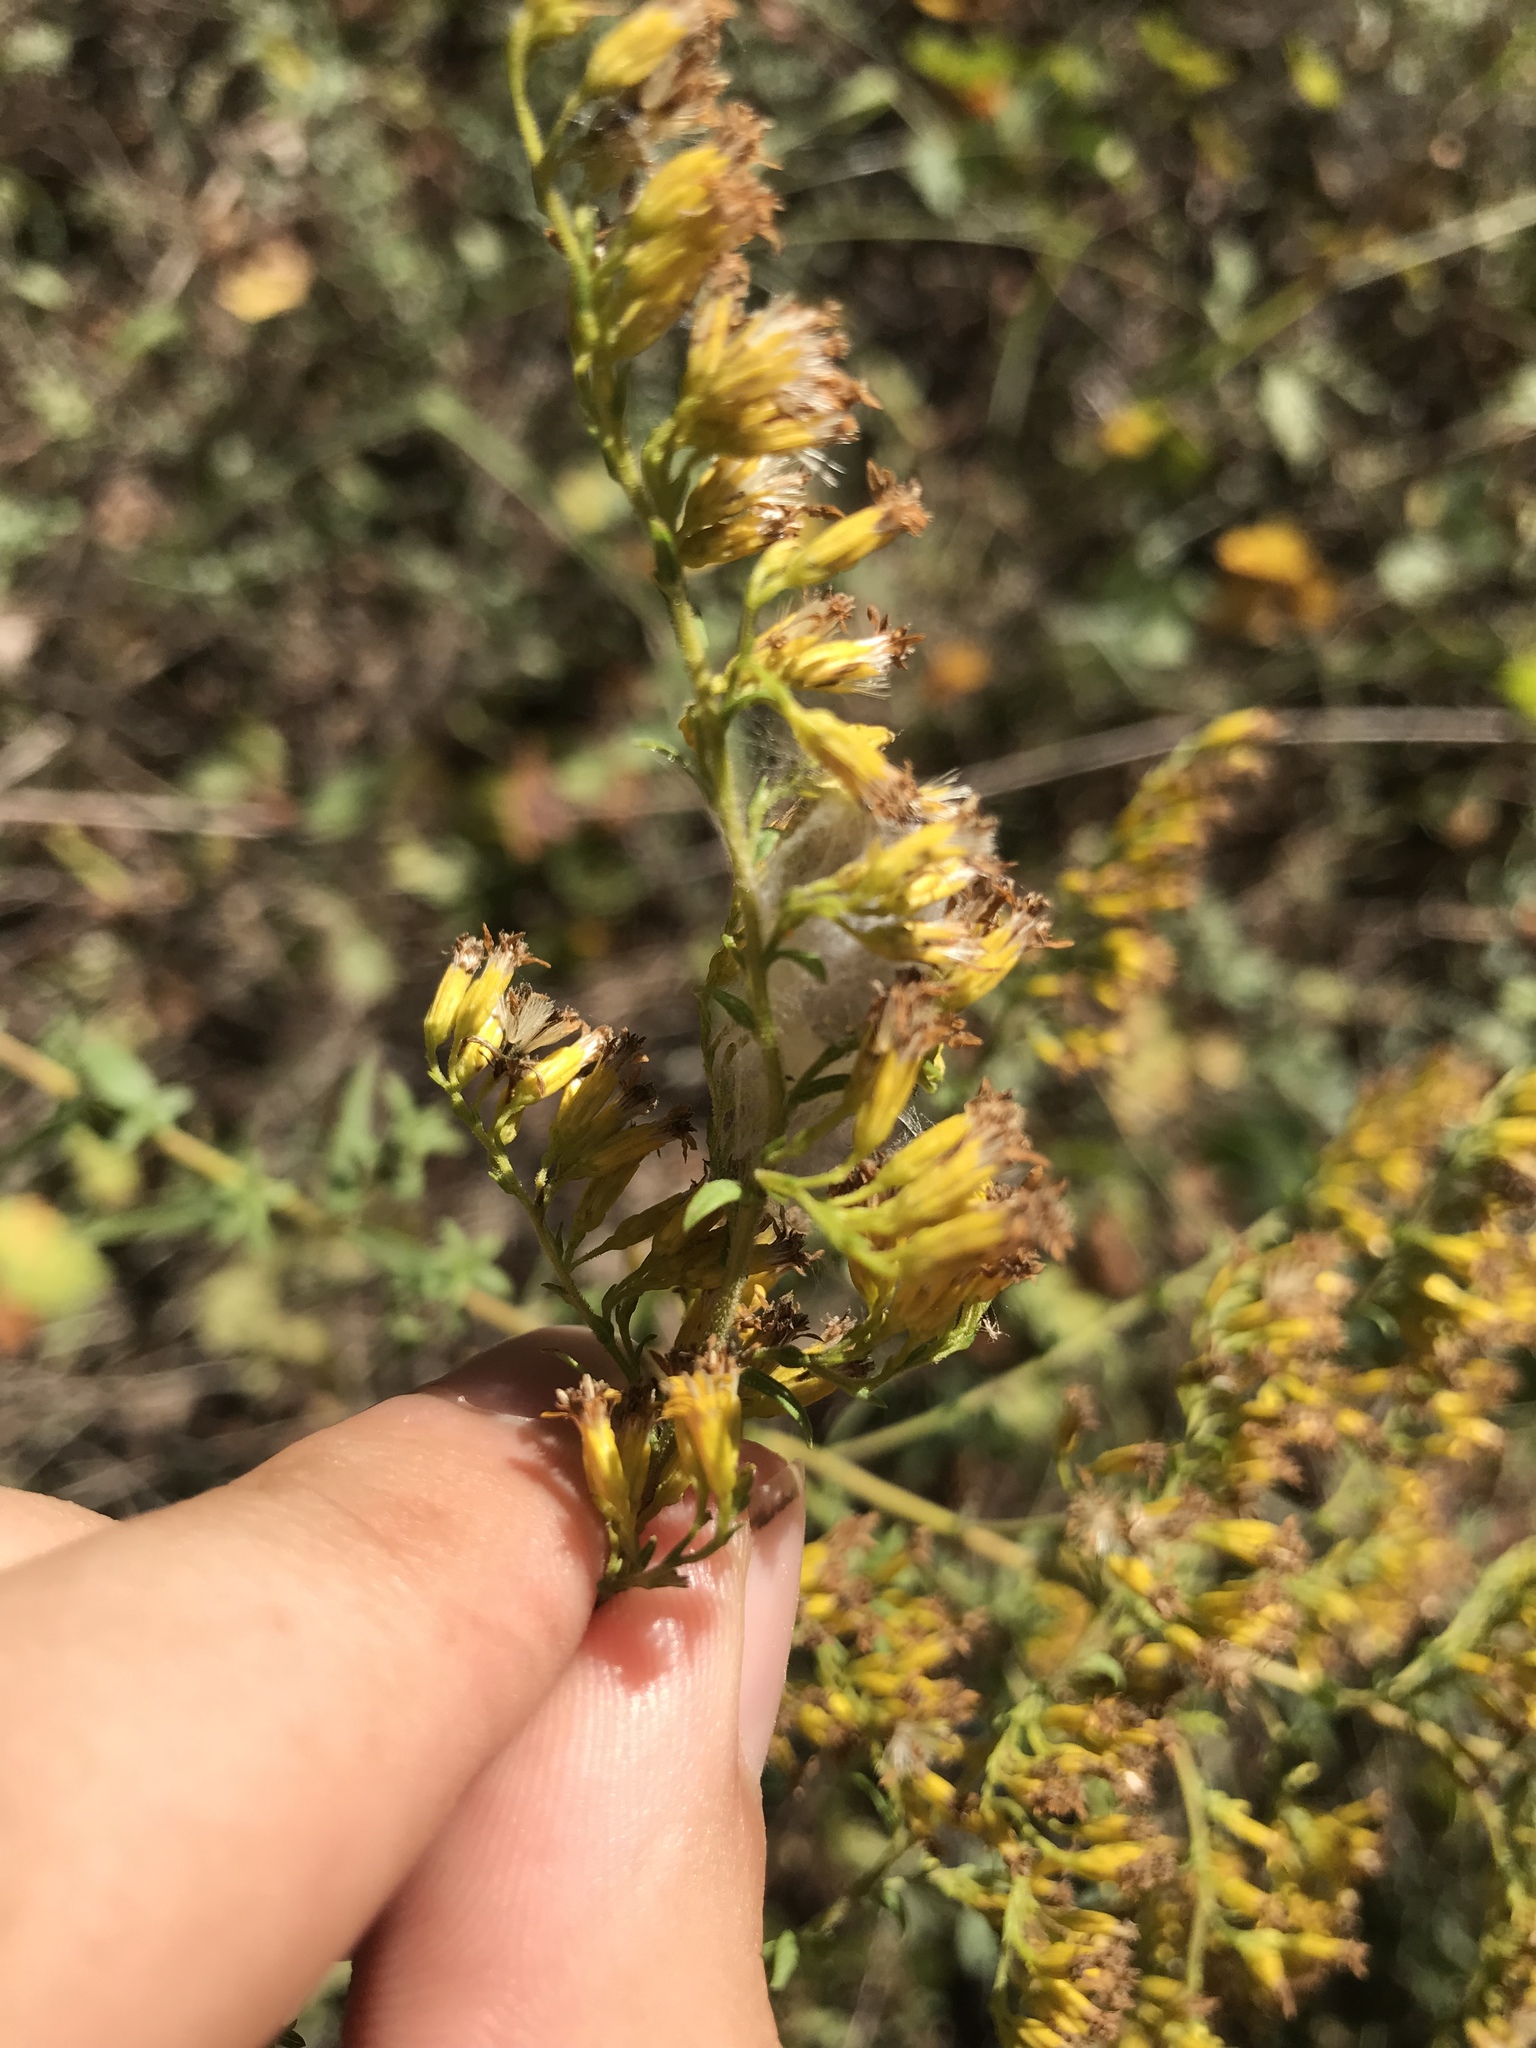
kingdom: Plantae
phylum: Tracheophyta
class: Magnoliopsida
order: Asterales
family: Asteraceae
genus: Solidago
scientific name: Solidago odora
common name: Anise-scented goldenrod
